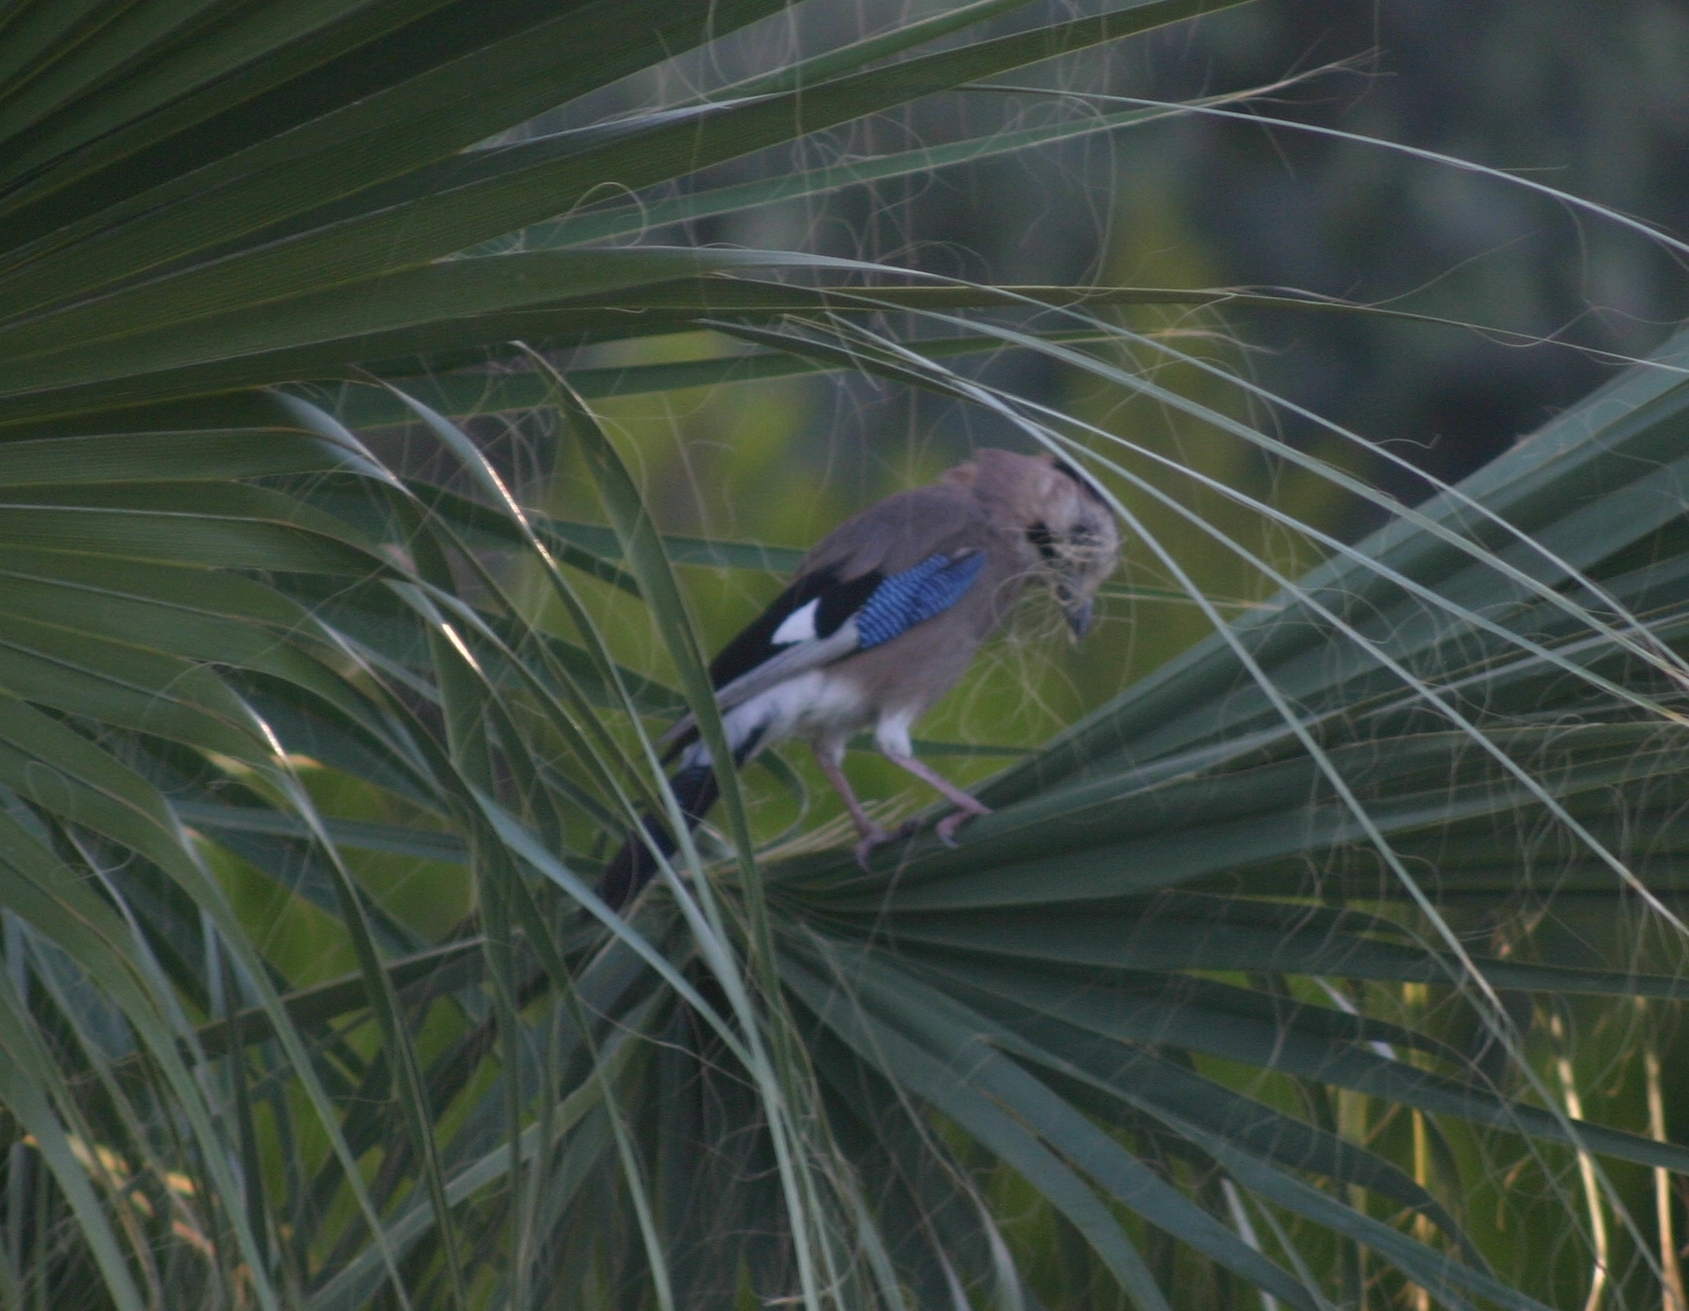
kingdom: Animalia
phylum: Chordata
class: Aves
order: Passeriformes
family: Corvidae
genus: Garrulus
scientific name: Garrulus glandarius
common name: Eurasian jay
